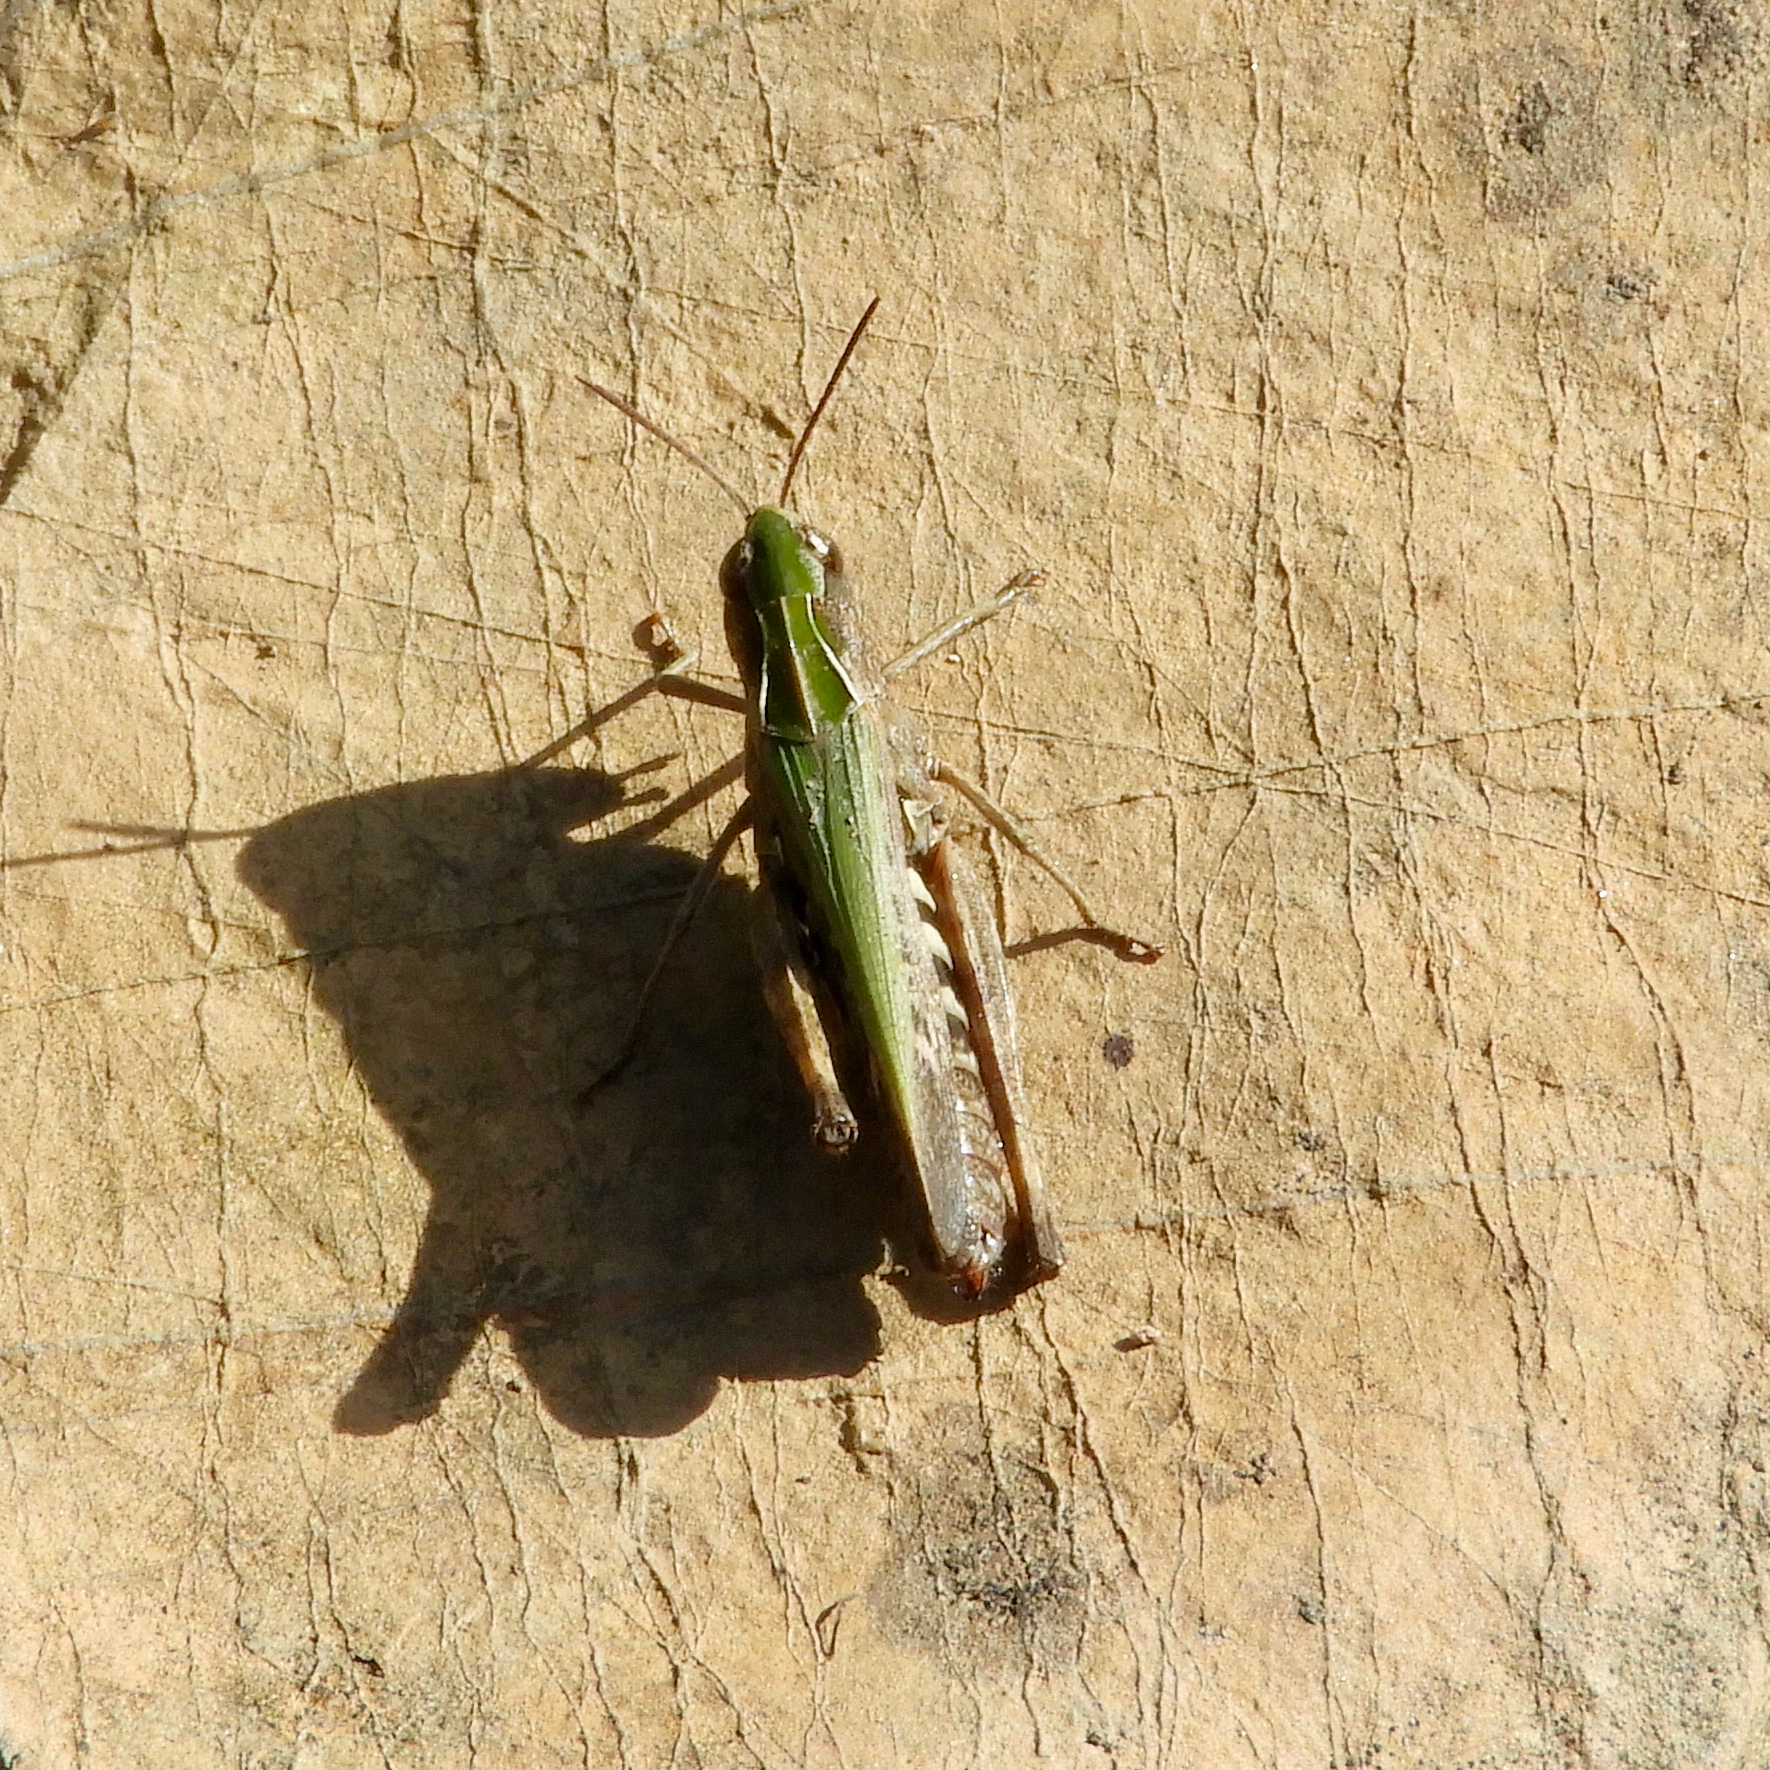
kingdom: Animalia
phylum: Arthropoda
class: Insecta
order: Orthoptera
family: Acrididae
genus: Omocestus
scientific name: Omocestus rufipes
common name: Woodland grasshopper
